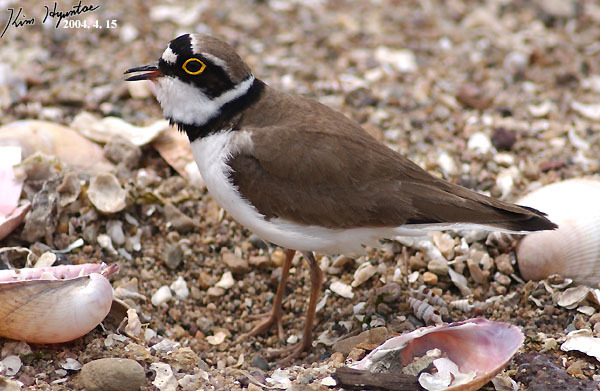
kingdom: Animalia
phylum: Chordata
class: Aves
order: Charadriiformes
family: Charadriidae
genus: Charadrius
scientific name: Charadrius dubius
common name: Little ringed plover
